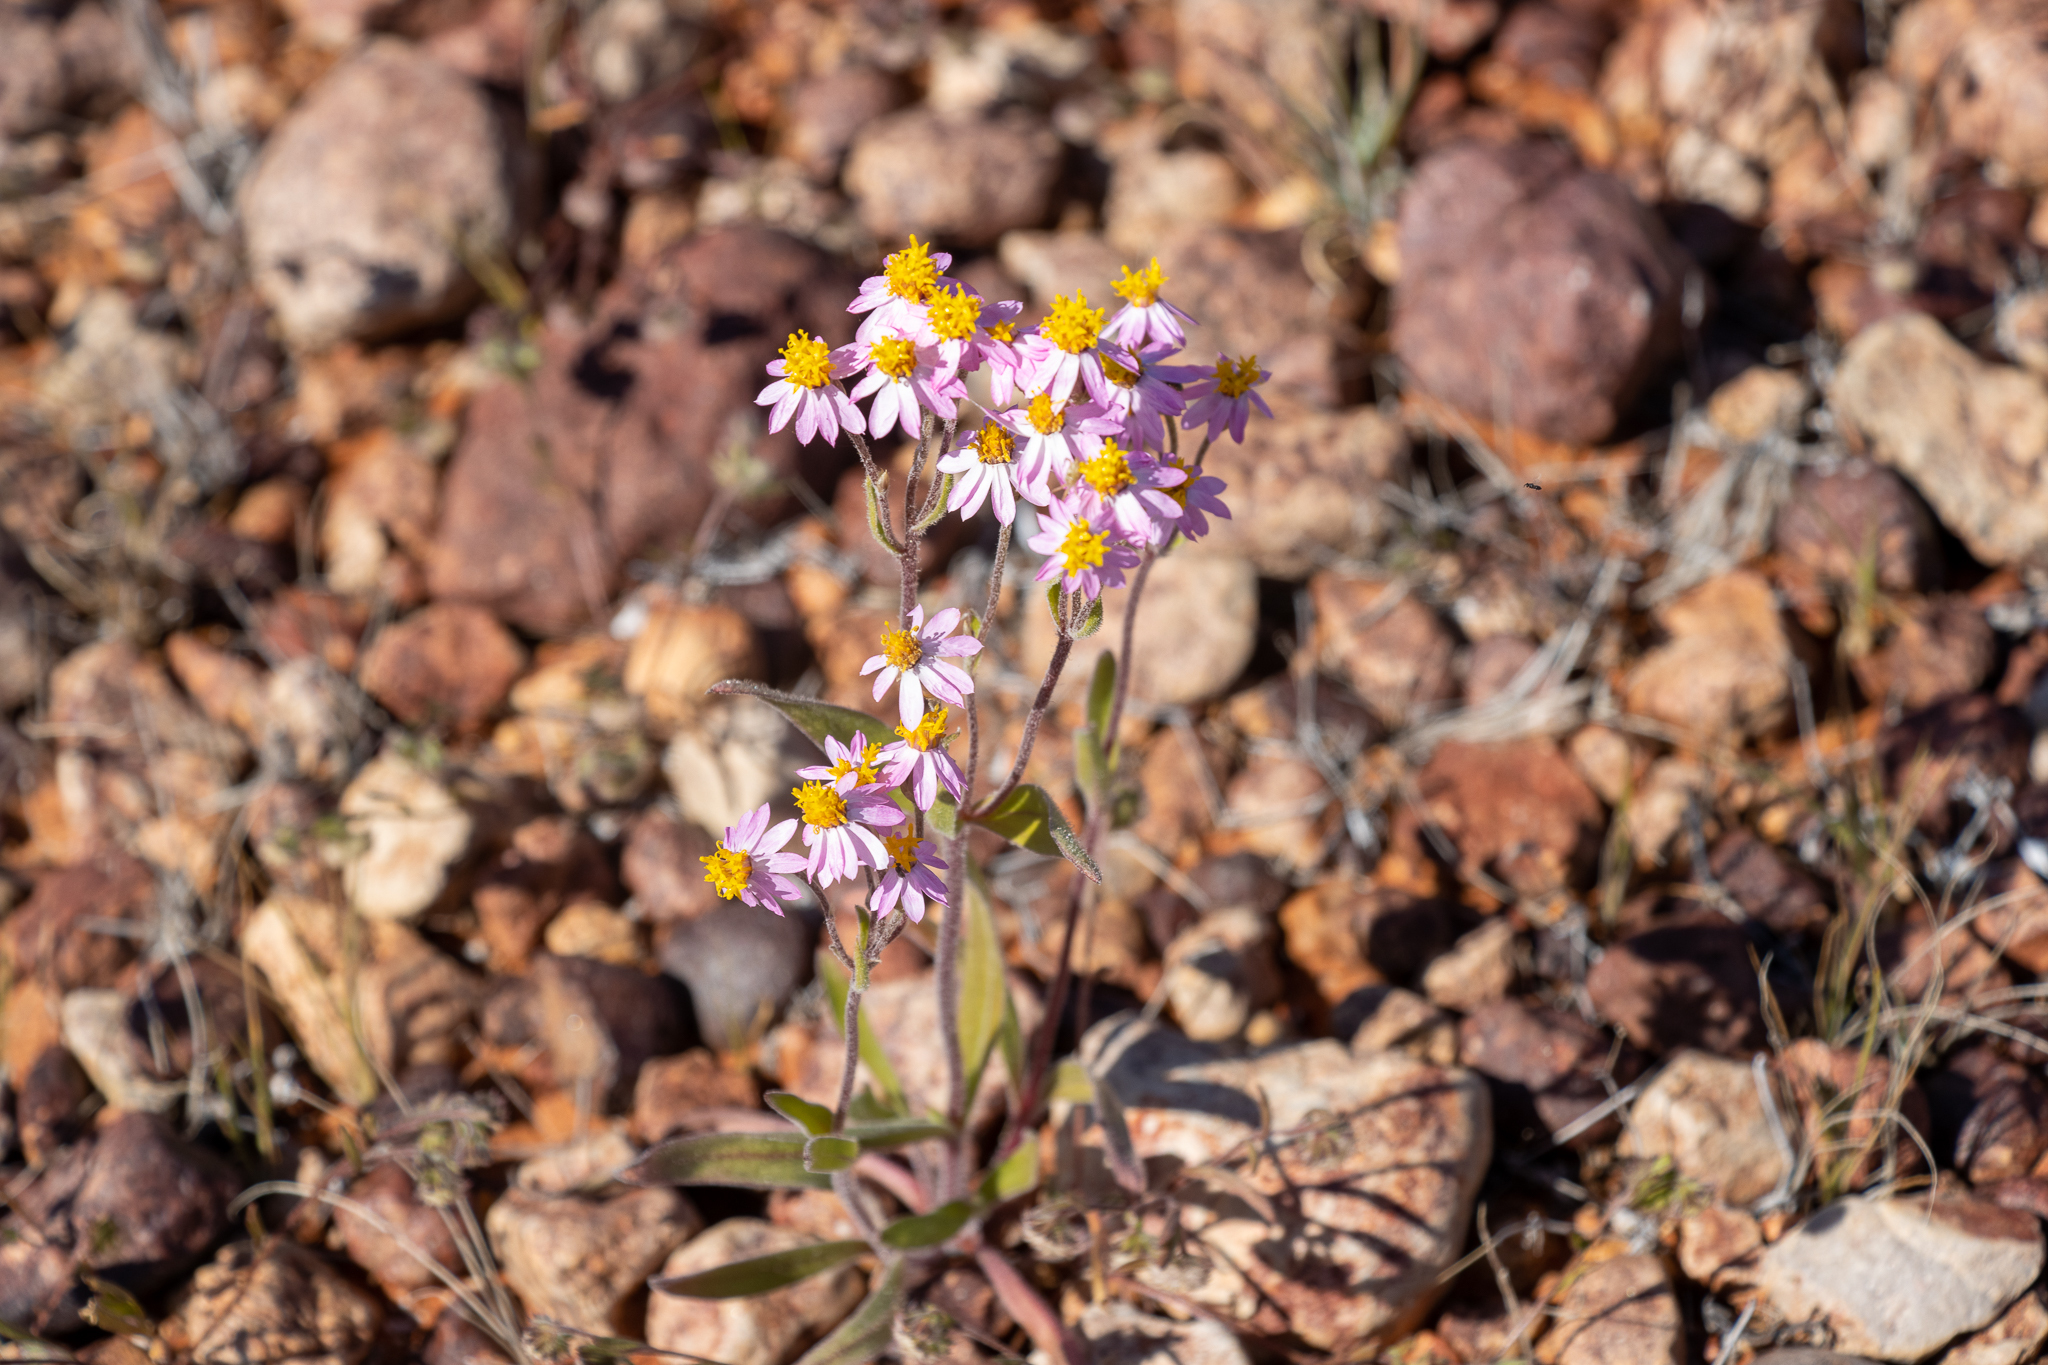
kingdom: Plantae
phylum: Tracheophyta
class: Magnoliopsida
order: Asterales
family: Asteraceae
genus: Schoenia
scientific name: Schoenia cassiniana
